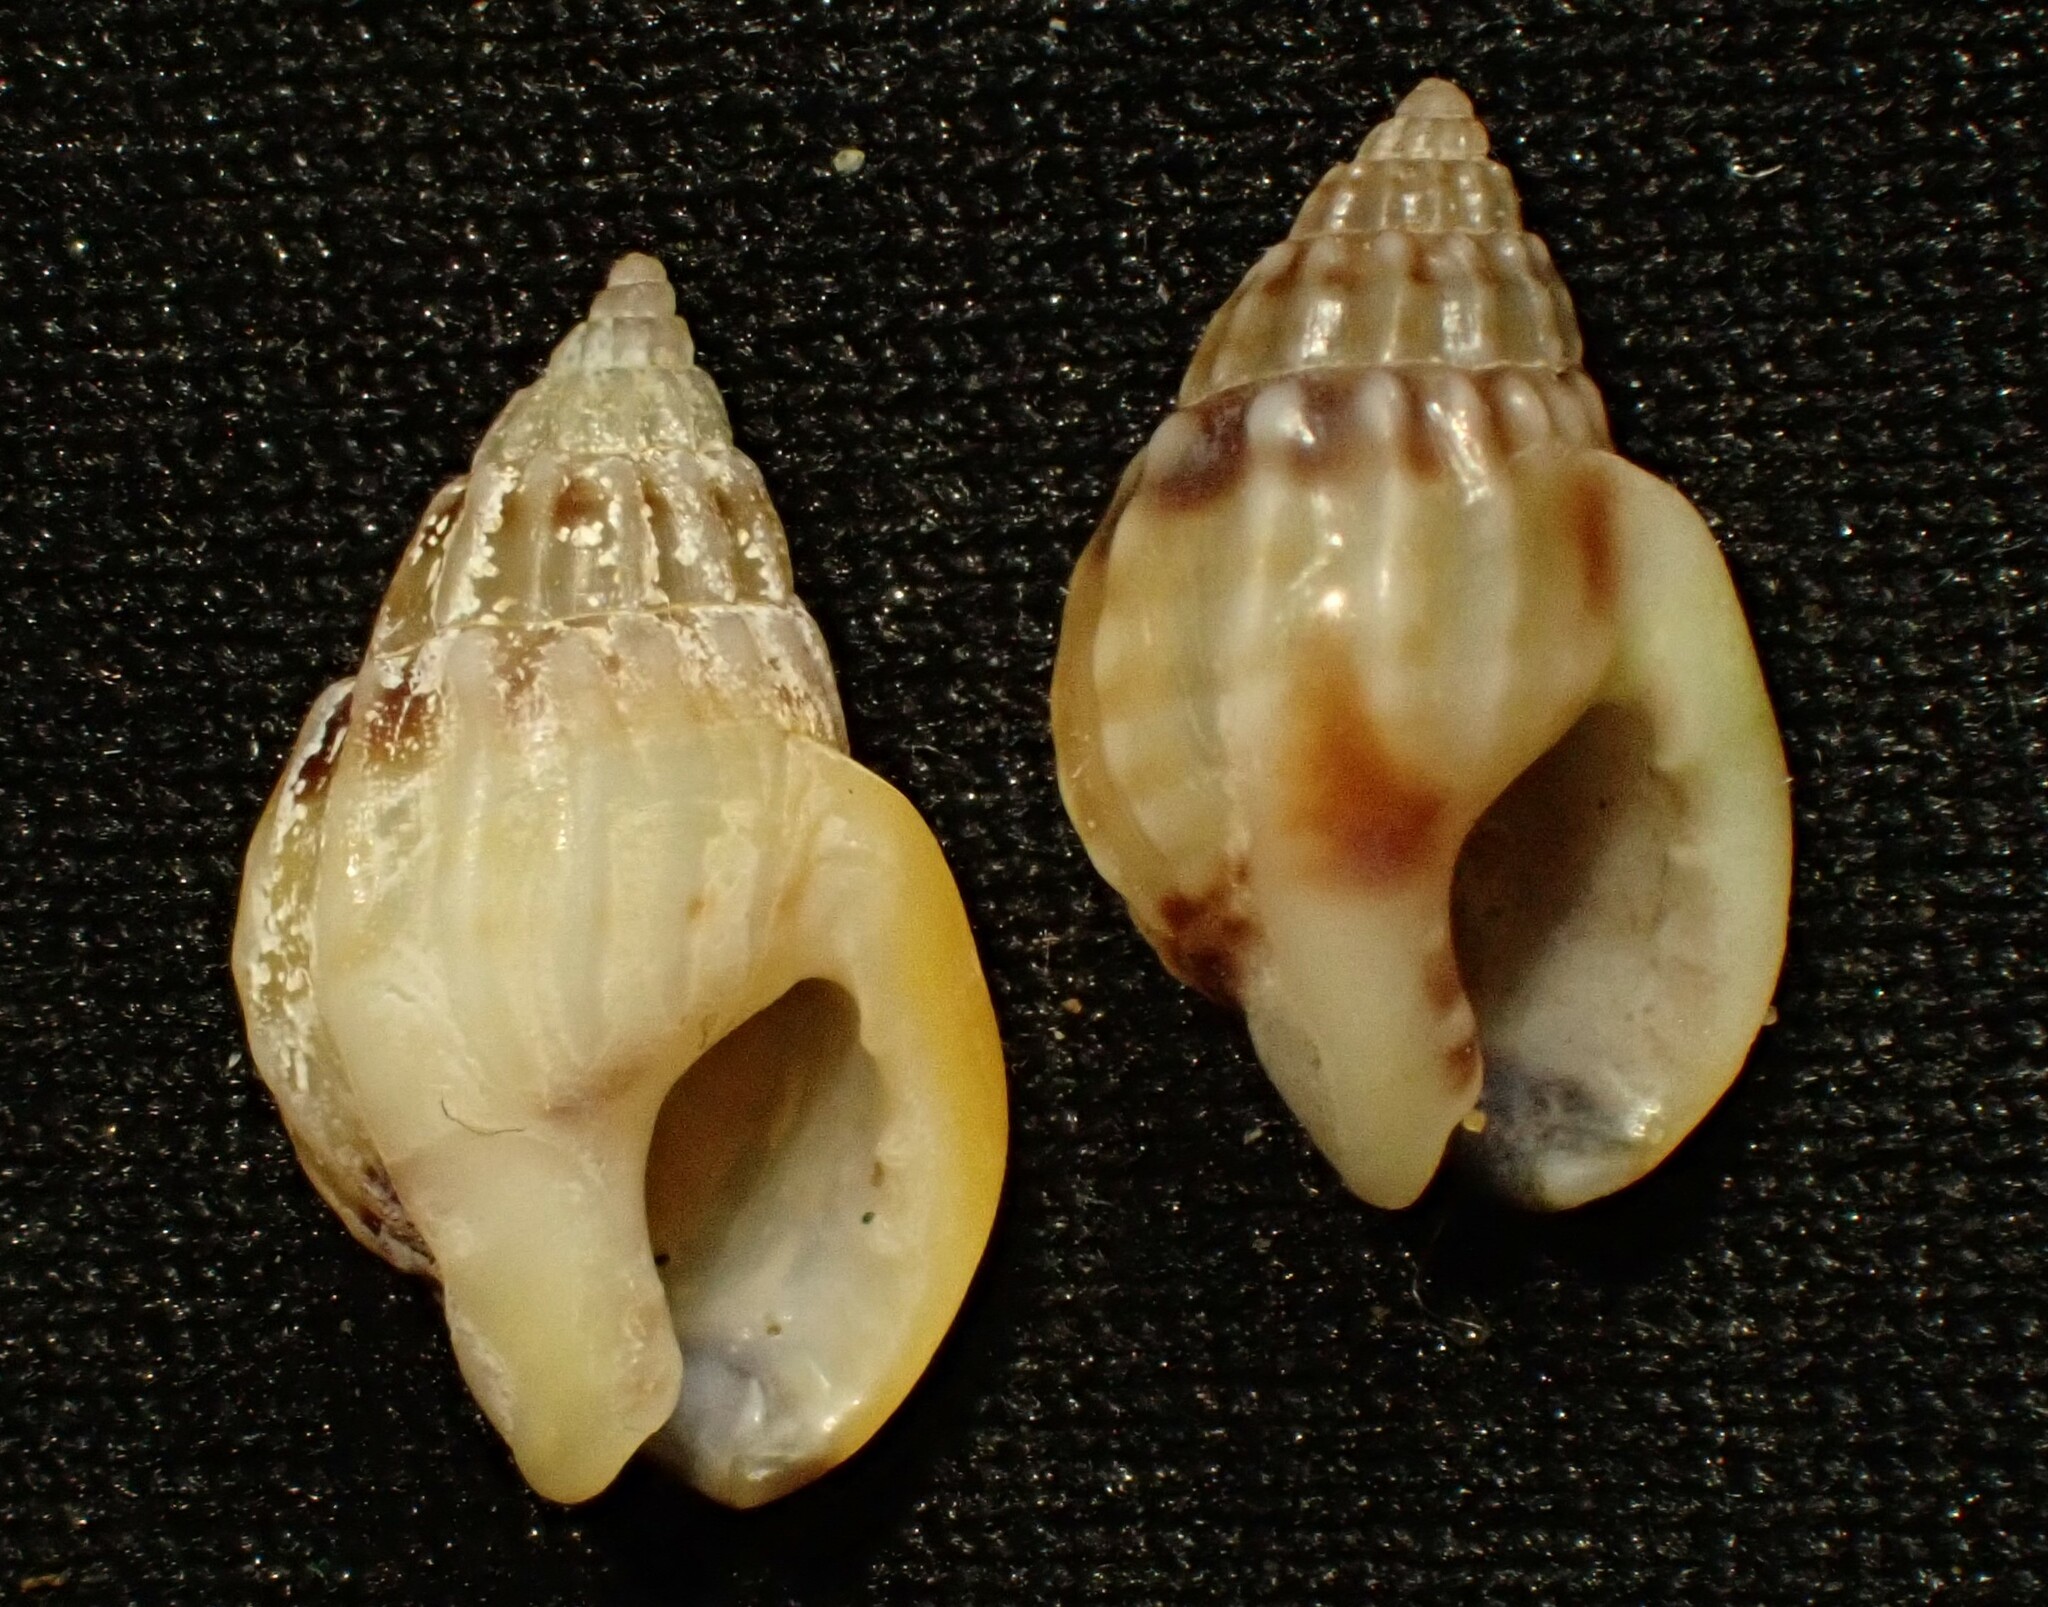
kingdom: Animalia
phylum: Mollusca
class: Gastropoda
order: Neogastropoda
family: Nassariidae
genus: Tritia
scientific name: Tritia burchardi
